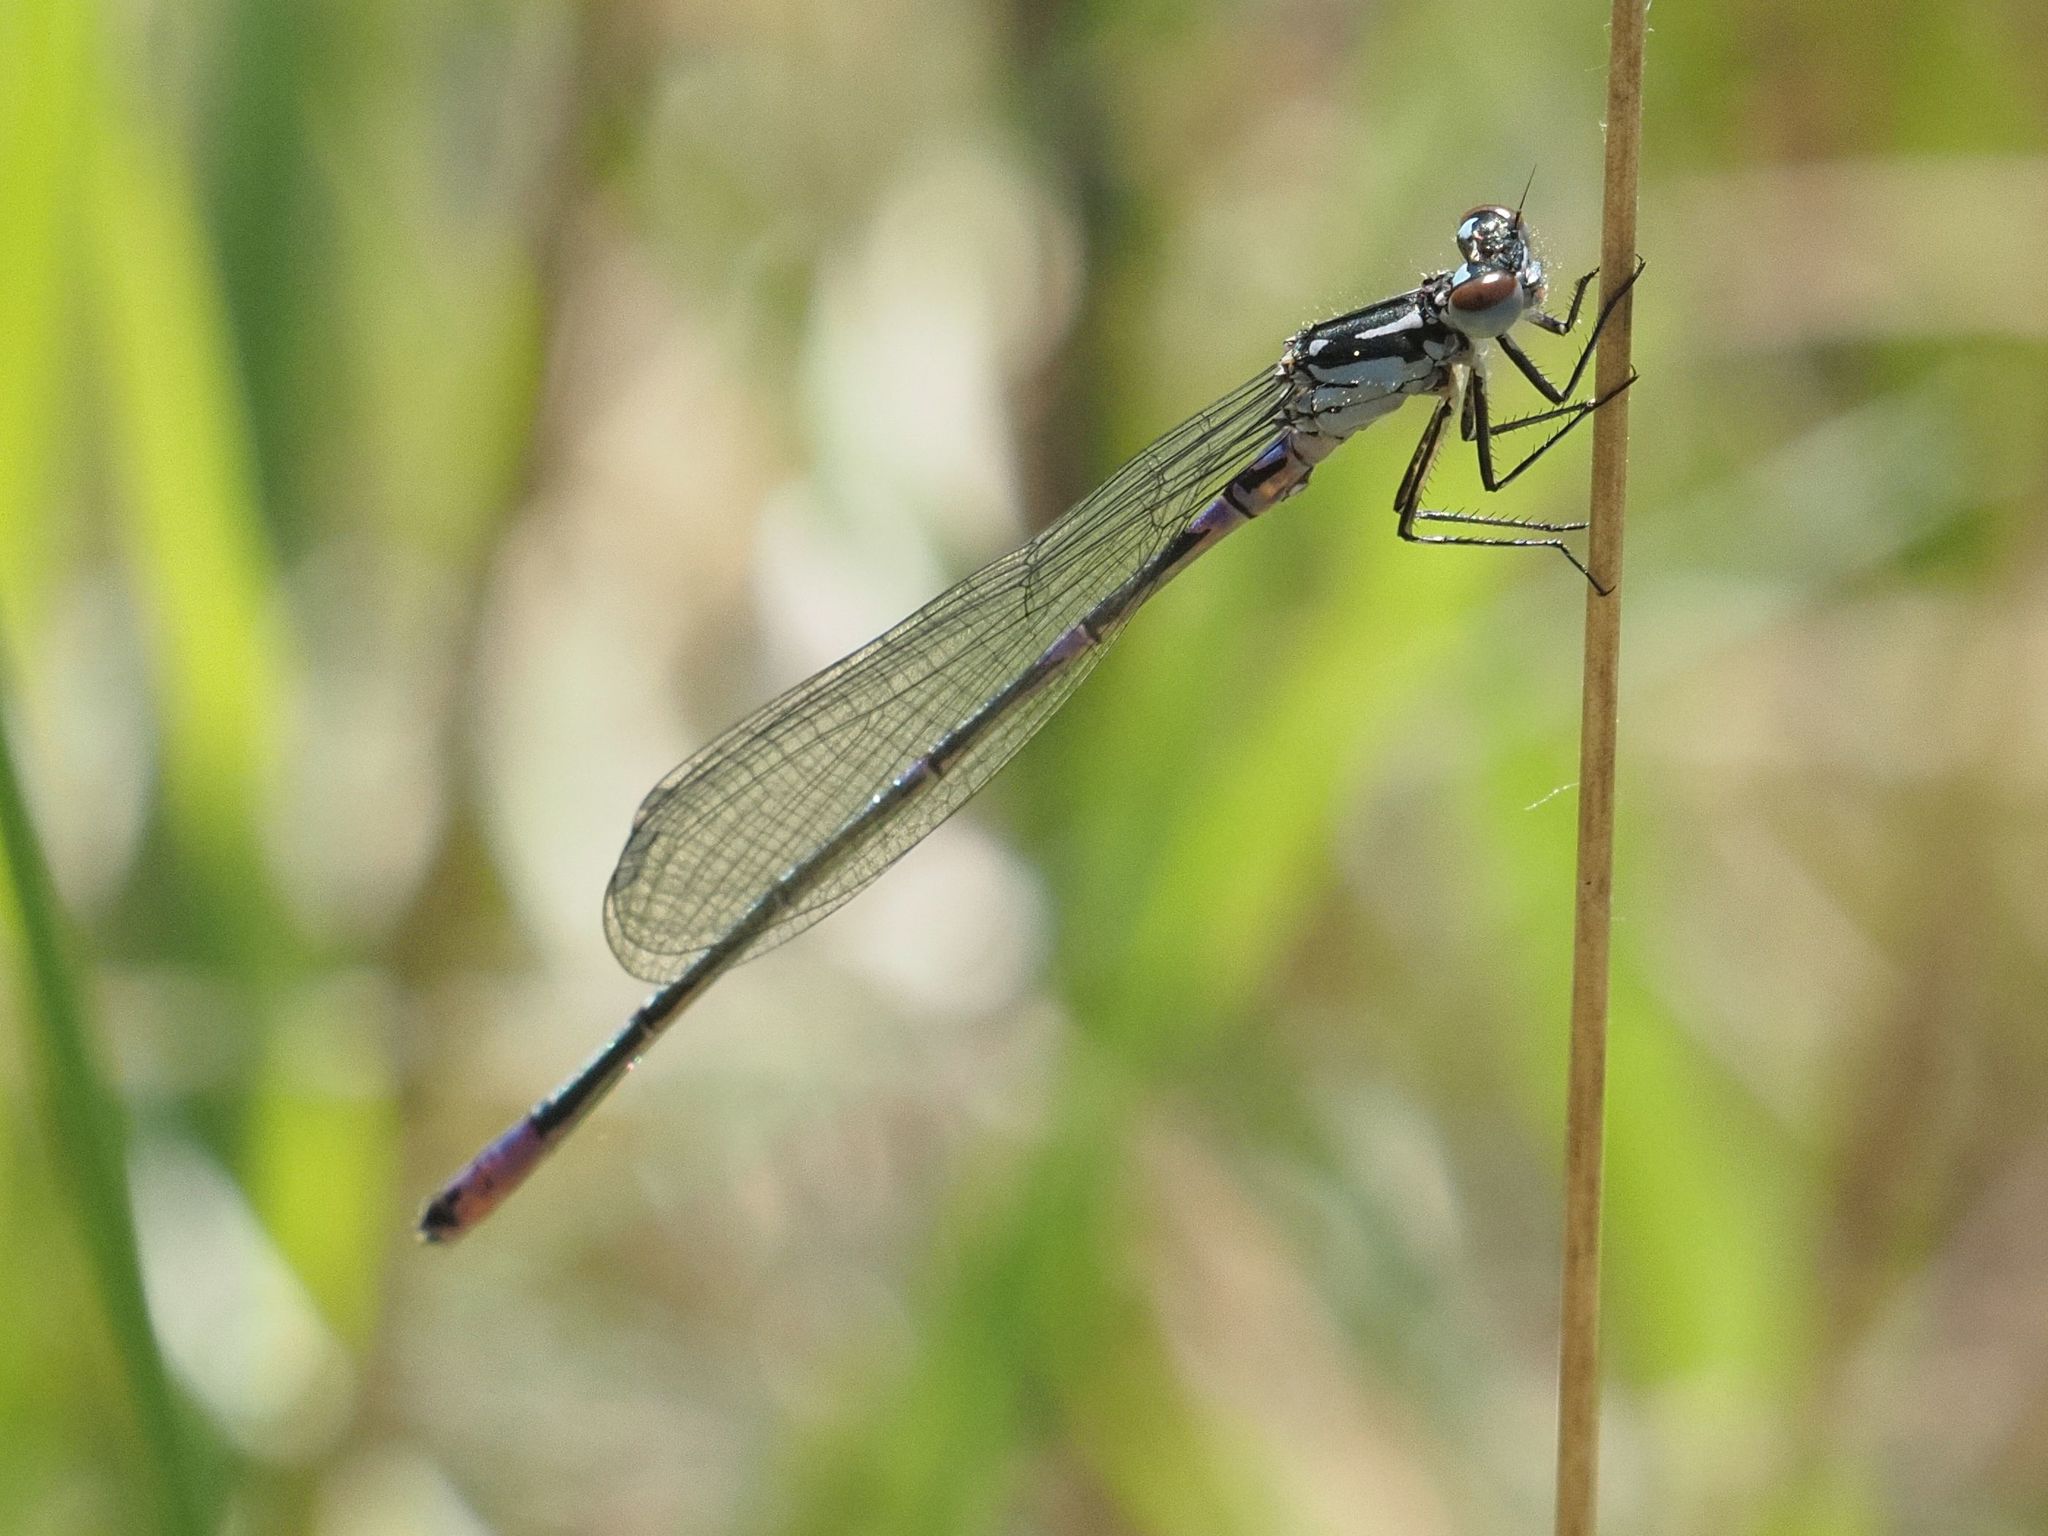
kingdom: Animalia
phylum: Arthropoda
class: Insecta
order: Odonata
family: Coenagrionidae
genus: Coenagrion
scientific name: Coenagrion pulchellum
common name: Variable bluet
